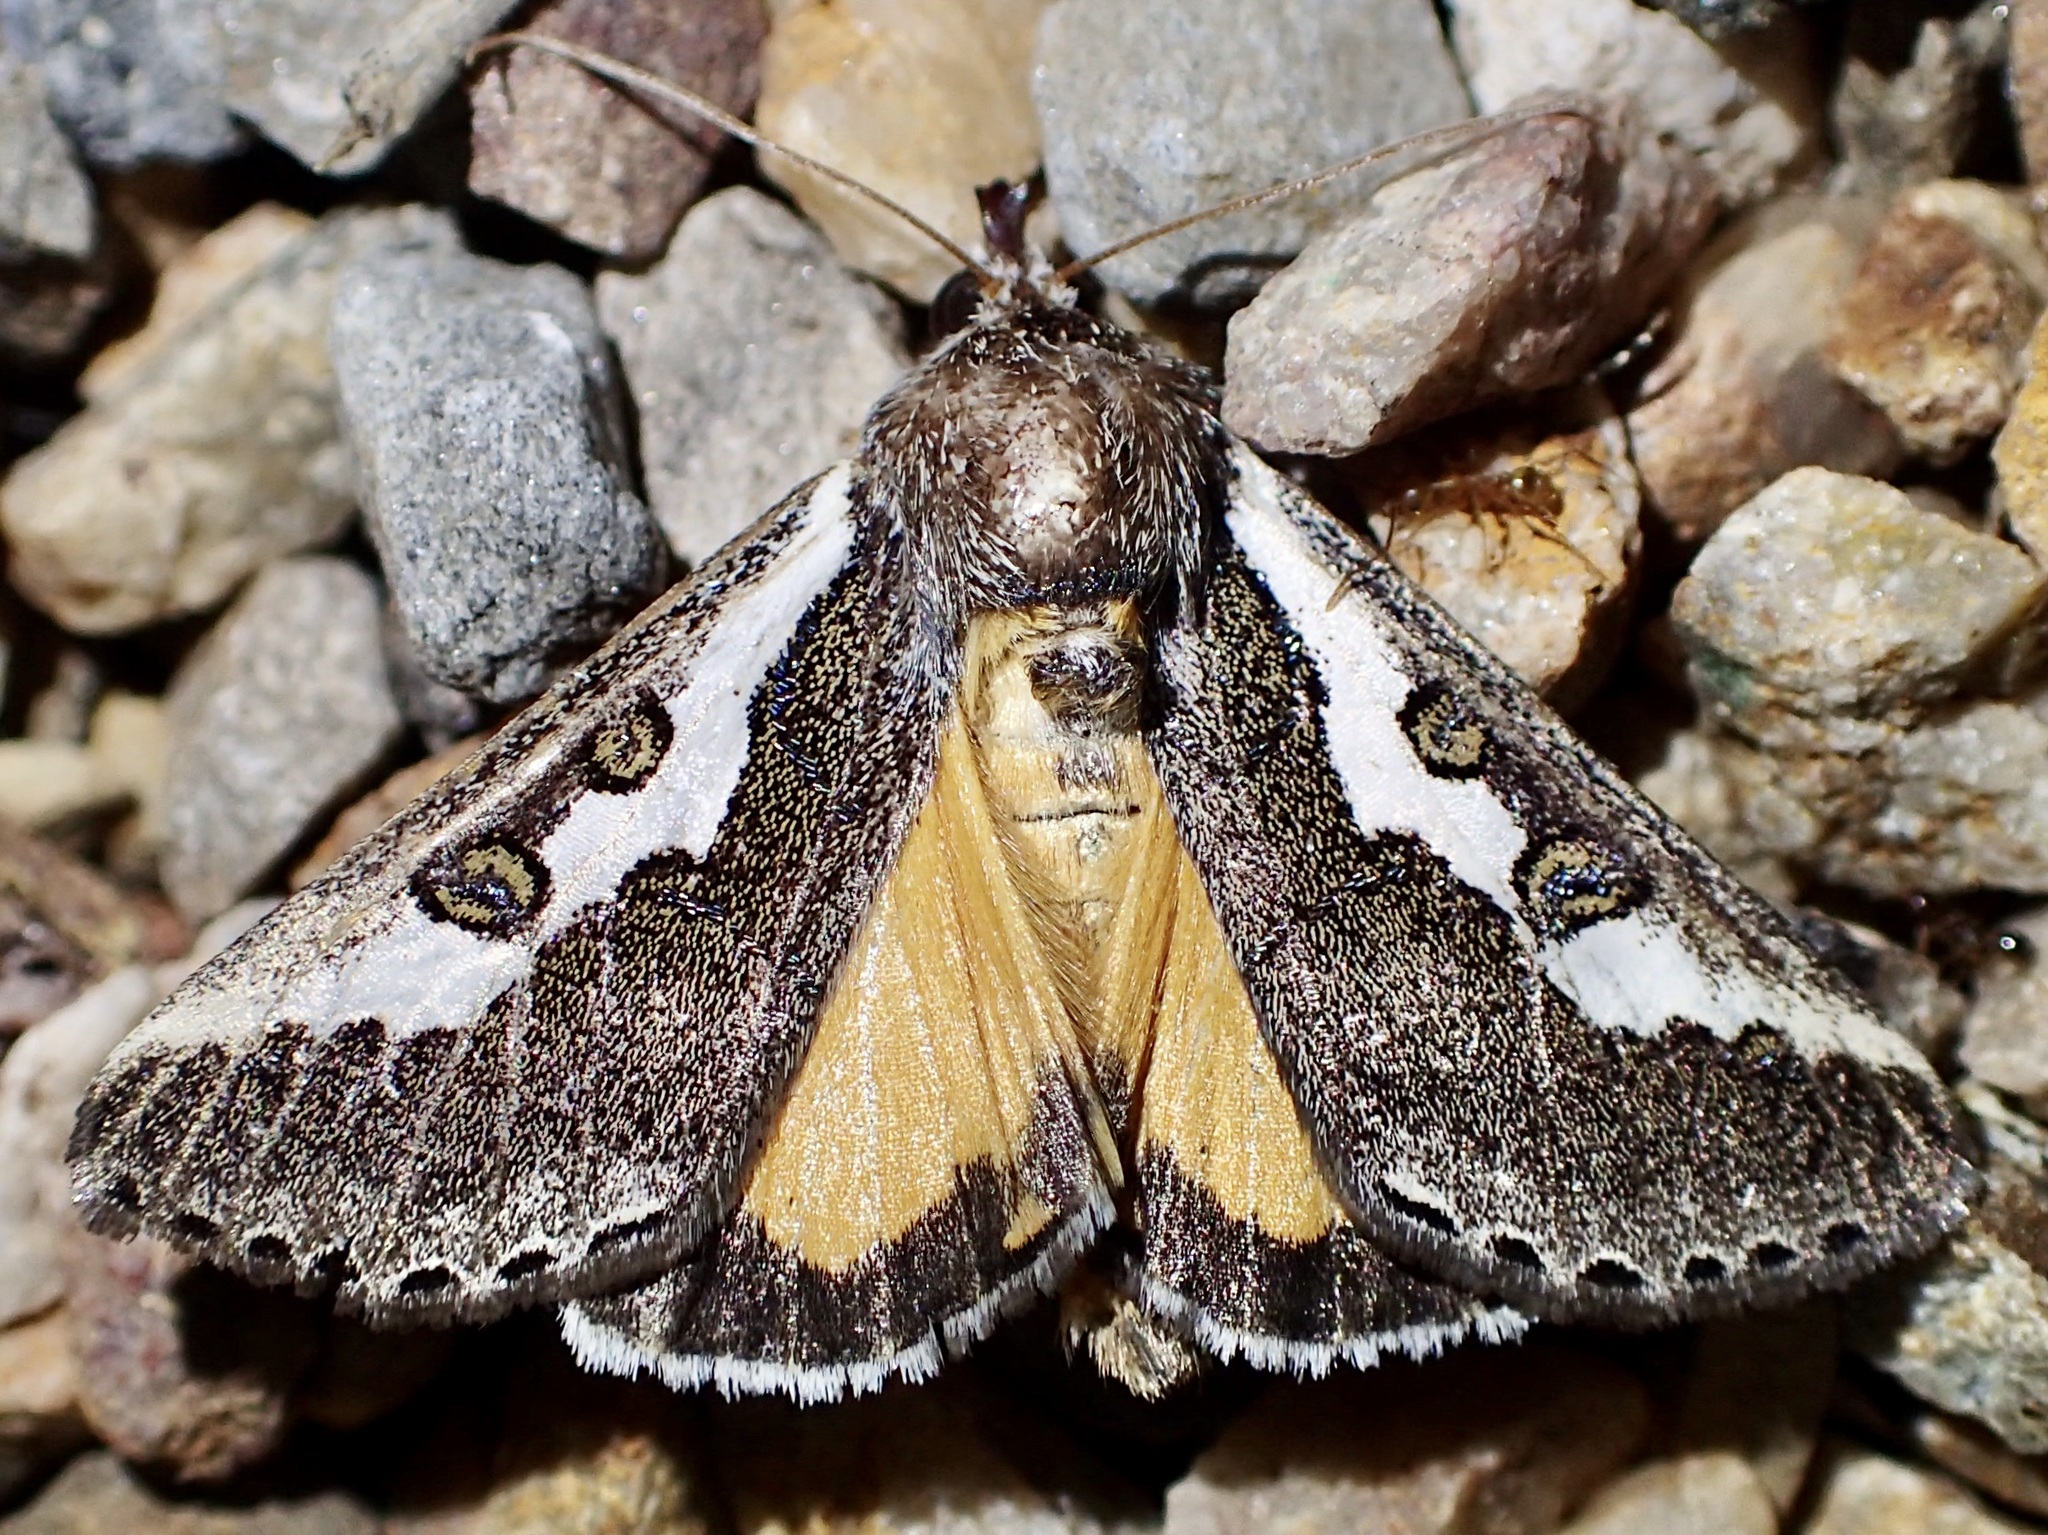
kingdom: Animalia
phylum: Arthropoda
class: Insecta
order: Lepidoptera
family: Noctuidae
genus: Euscirrhopterus
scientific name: Euscirrhopterus gloveri
